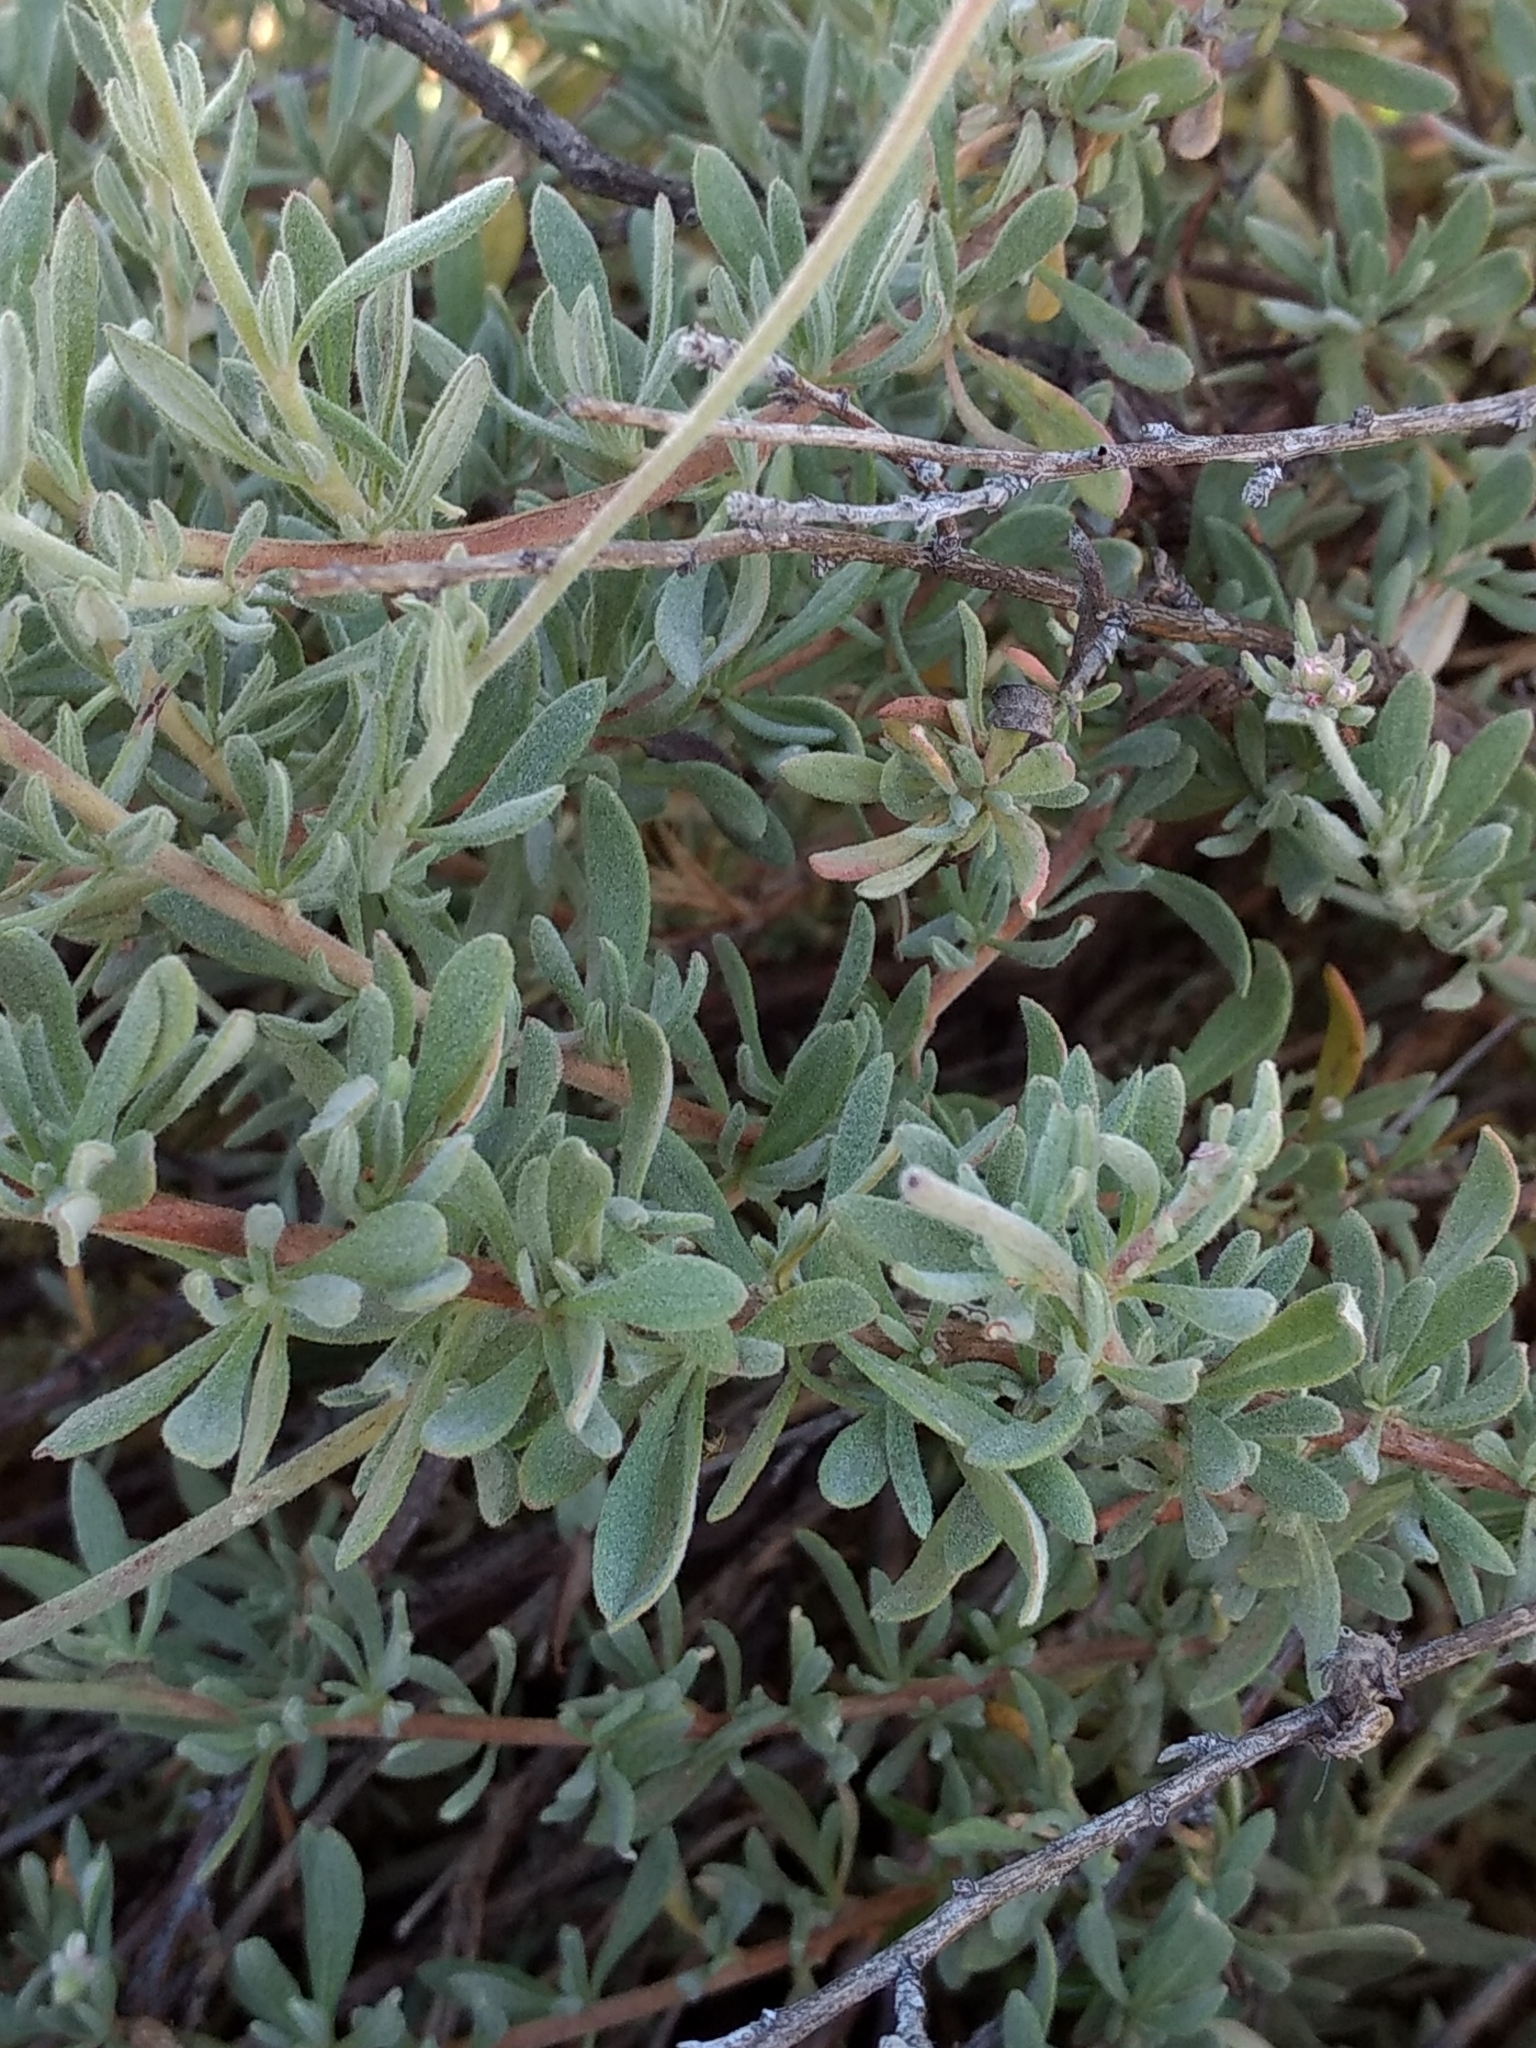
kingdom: Plantae
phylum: Tracheophyta
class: Magnoliopsida
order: Caryophyllales
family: Polygonaceae
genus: Eriogonum
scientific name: Eriogonum fasciculatum
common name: California wild buckwheat
